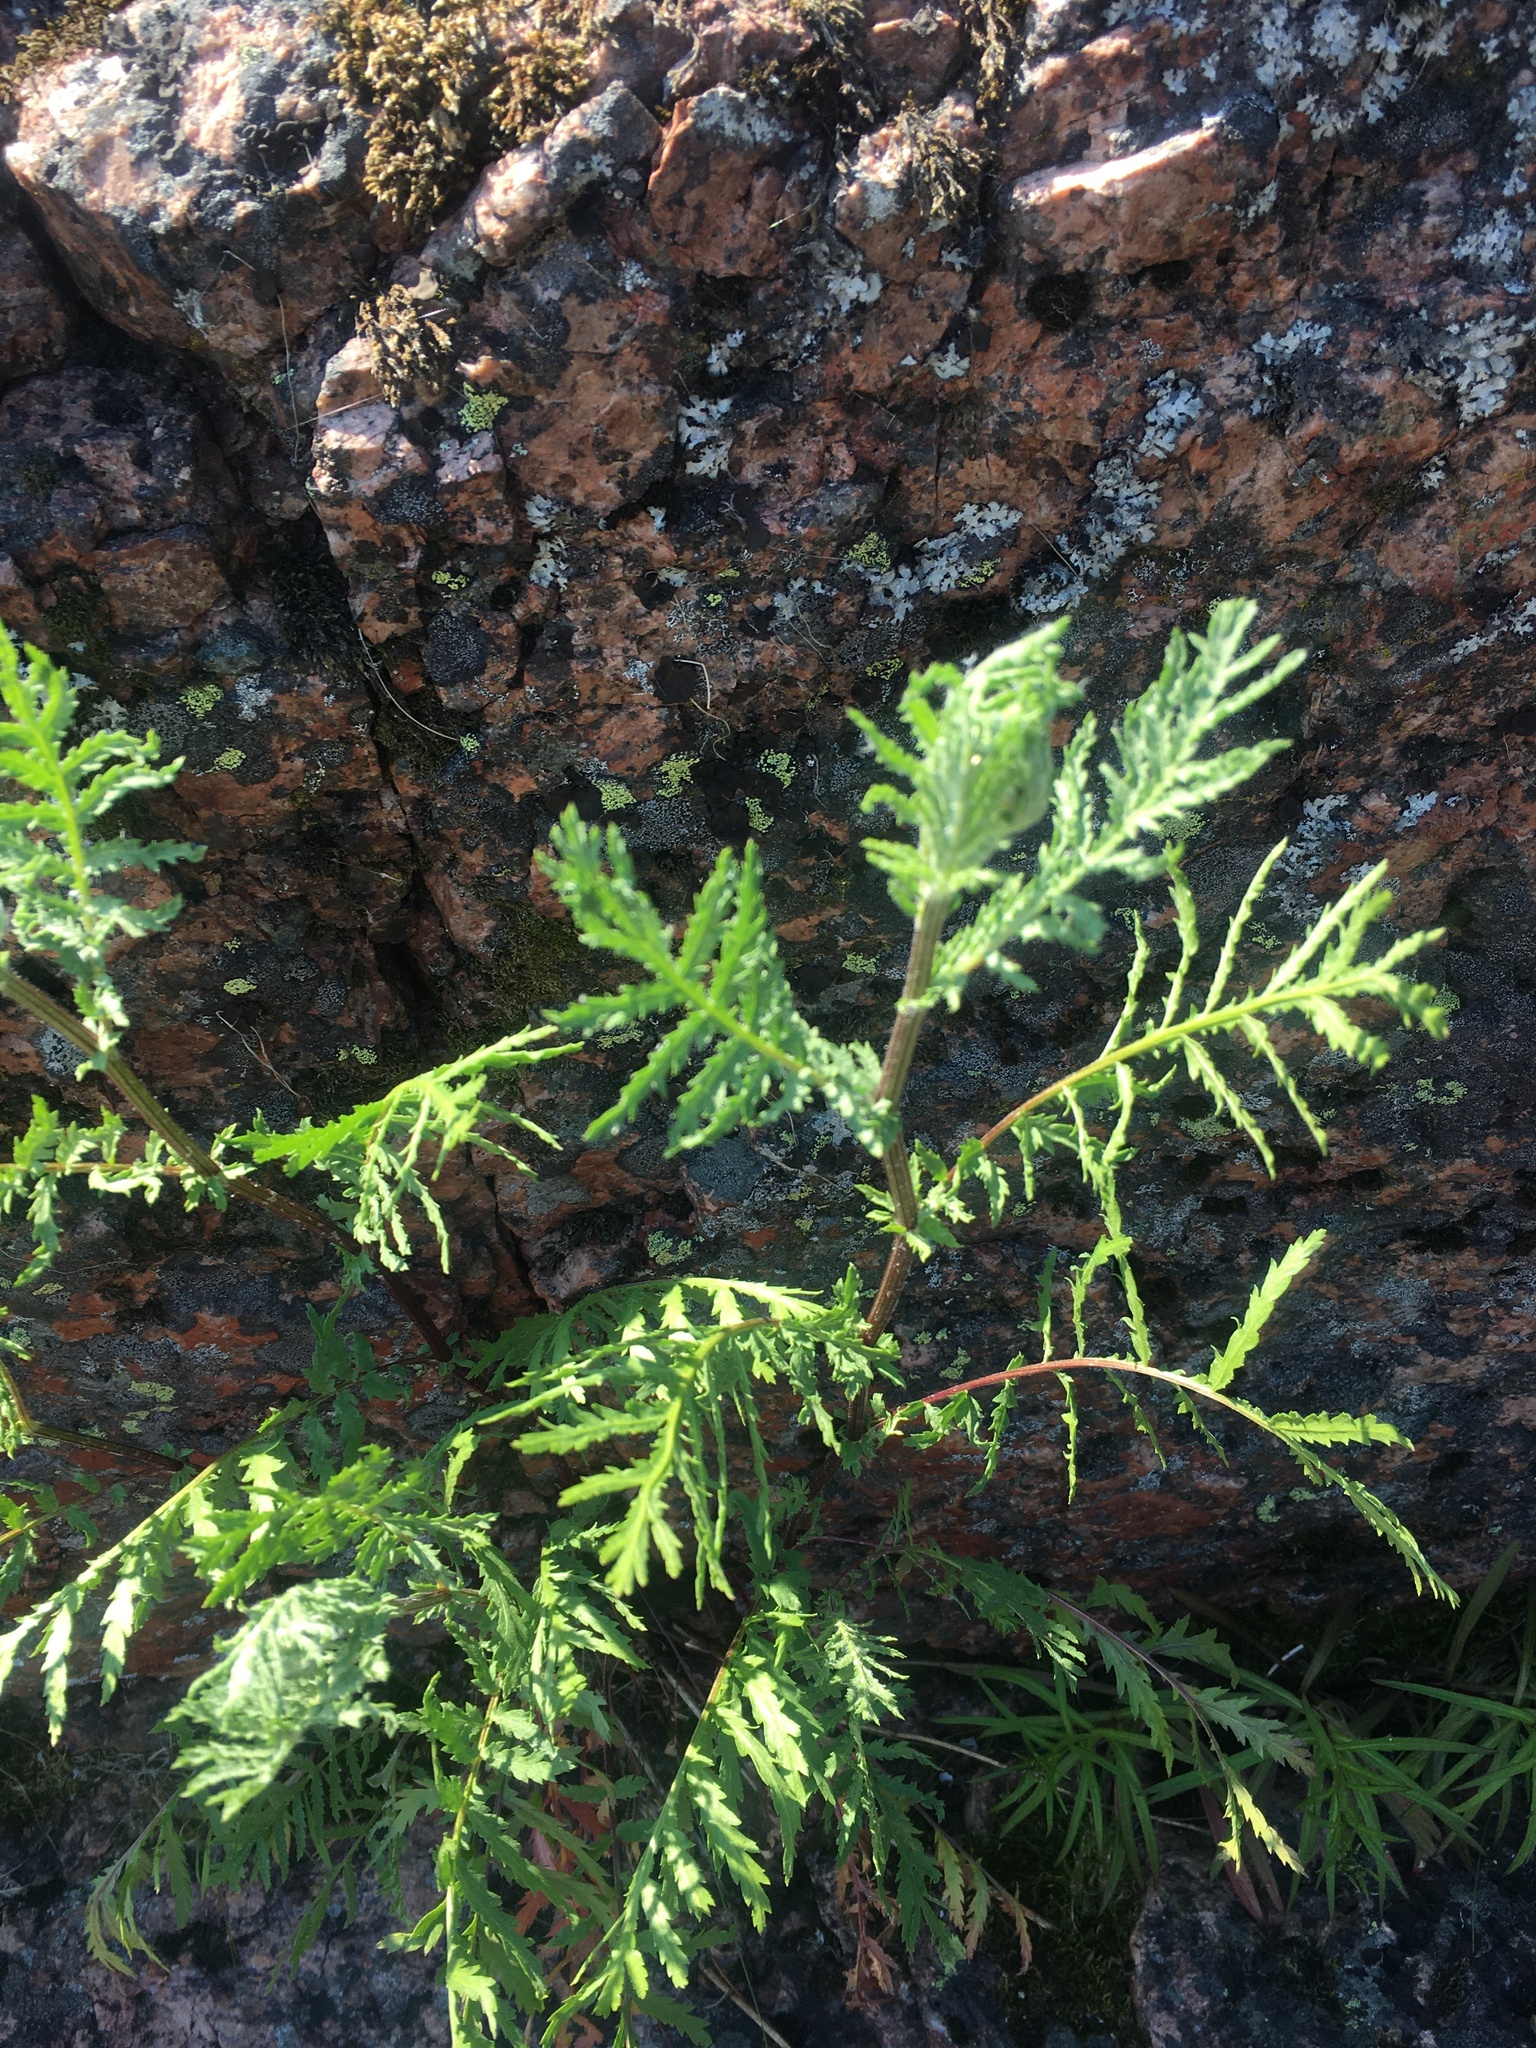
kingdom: Plantae
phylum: Tracheophyta
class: Magnoliopsida
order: Asterales
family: Asteraceae
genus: Tanacetum
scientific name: Tanacetum vulgare
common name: Common tansy
